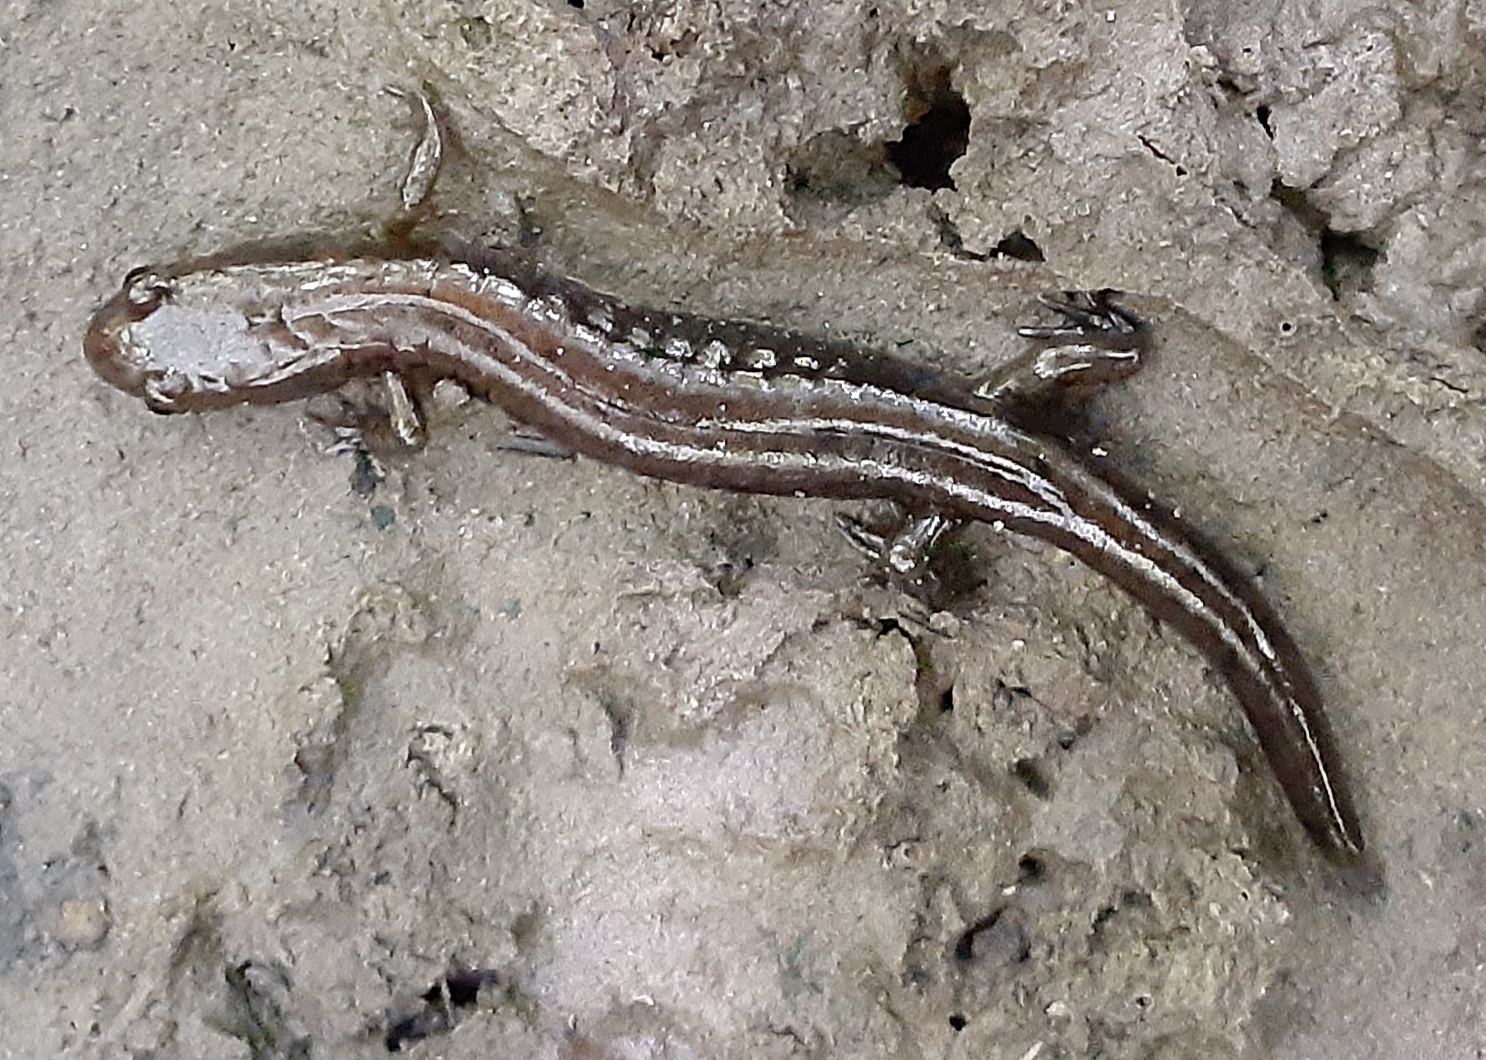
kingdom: Animalia
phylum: Chordata
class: Amphibia
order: Caudata
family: Plethodontidae
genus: Desmognathus
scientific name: Desmognathus ochrophaeus
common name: Allegheny mountain dusky salamander
